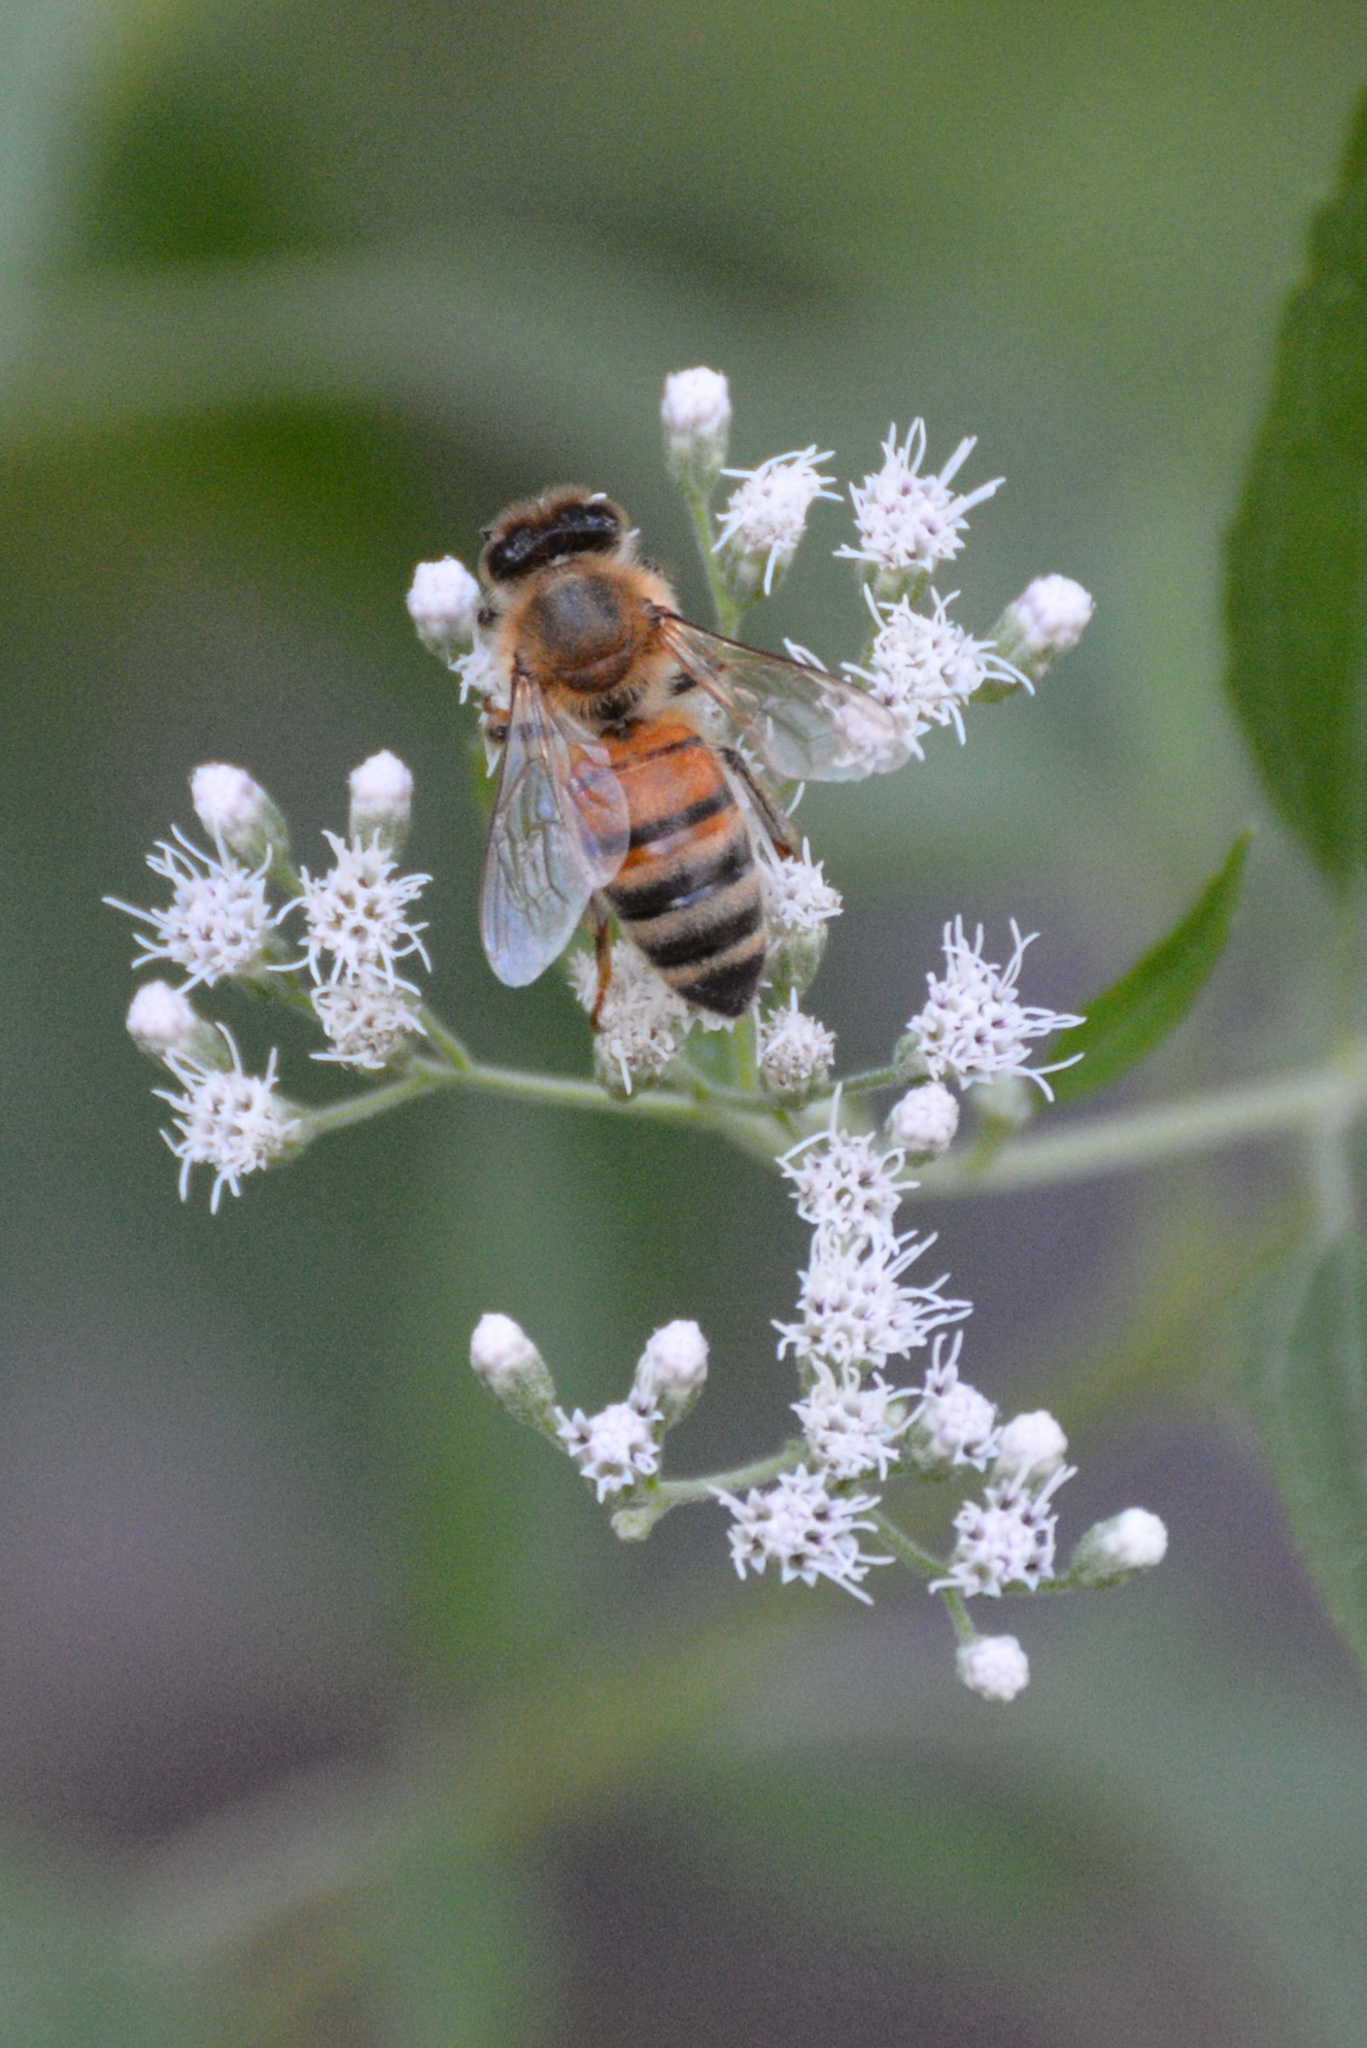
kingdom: Animalia
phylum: Arthropoda
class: Insecta
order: Hymenoptera
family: Apidae
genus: Apis
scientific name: Apis mellifera
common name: Honey bee
